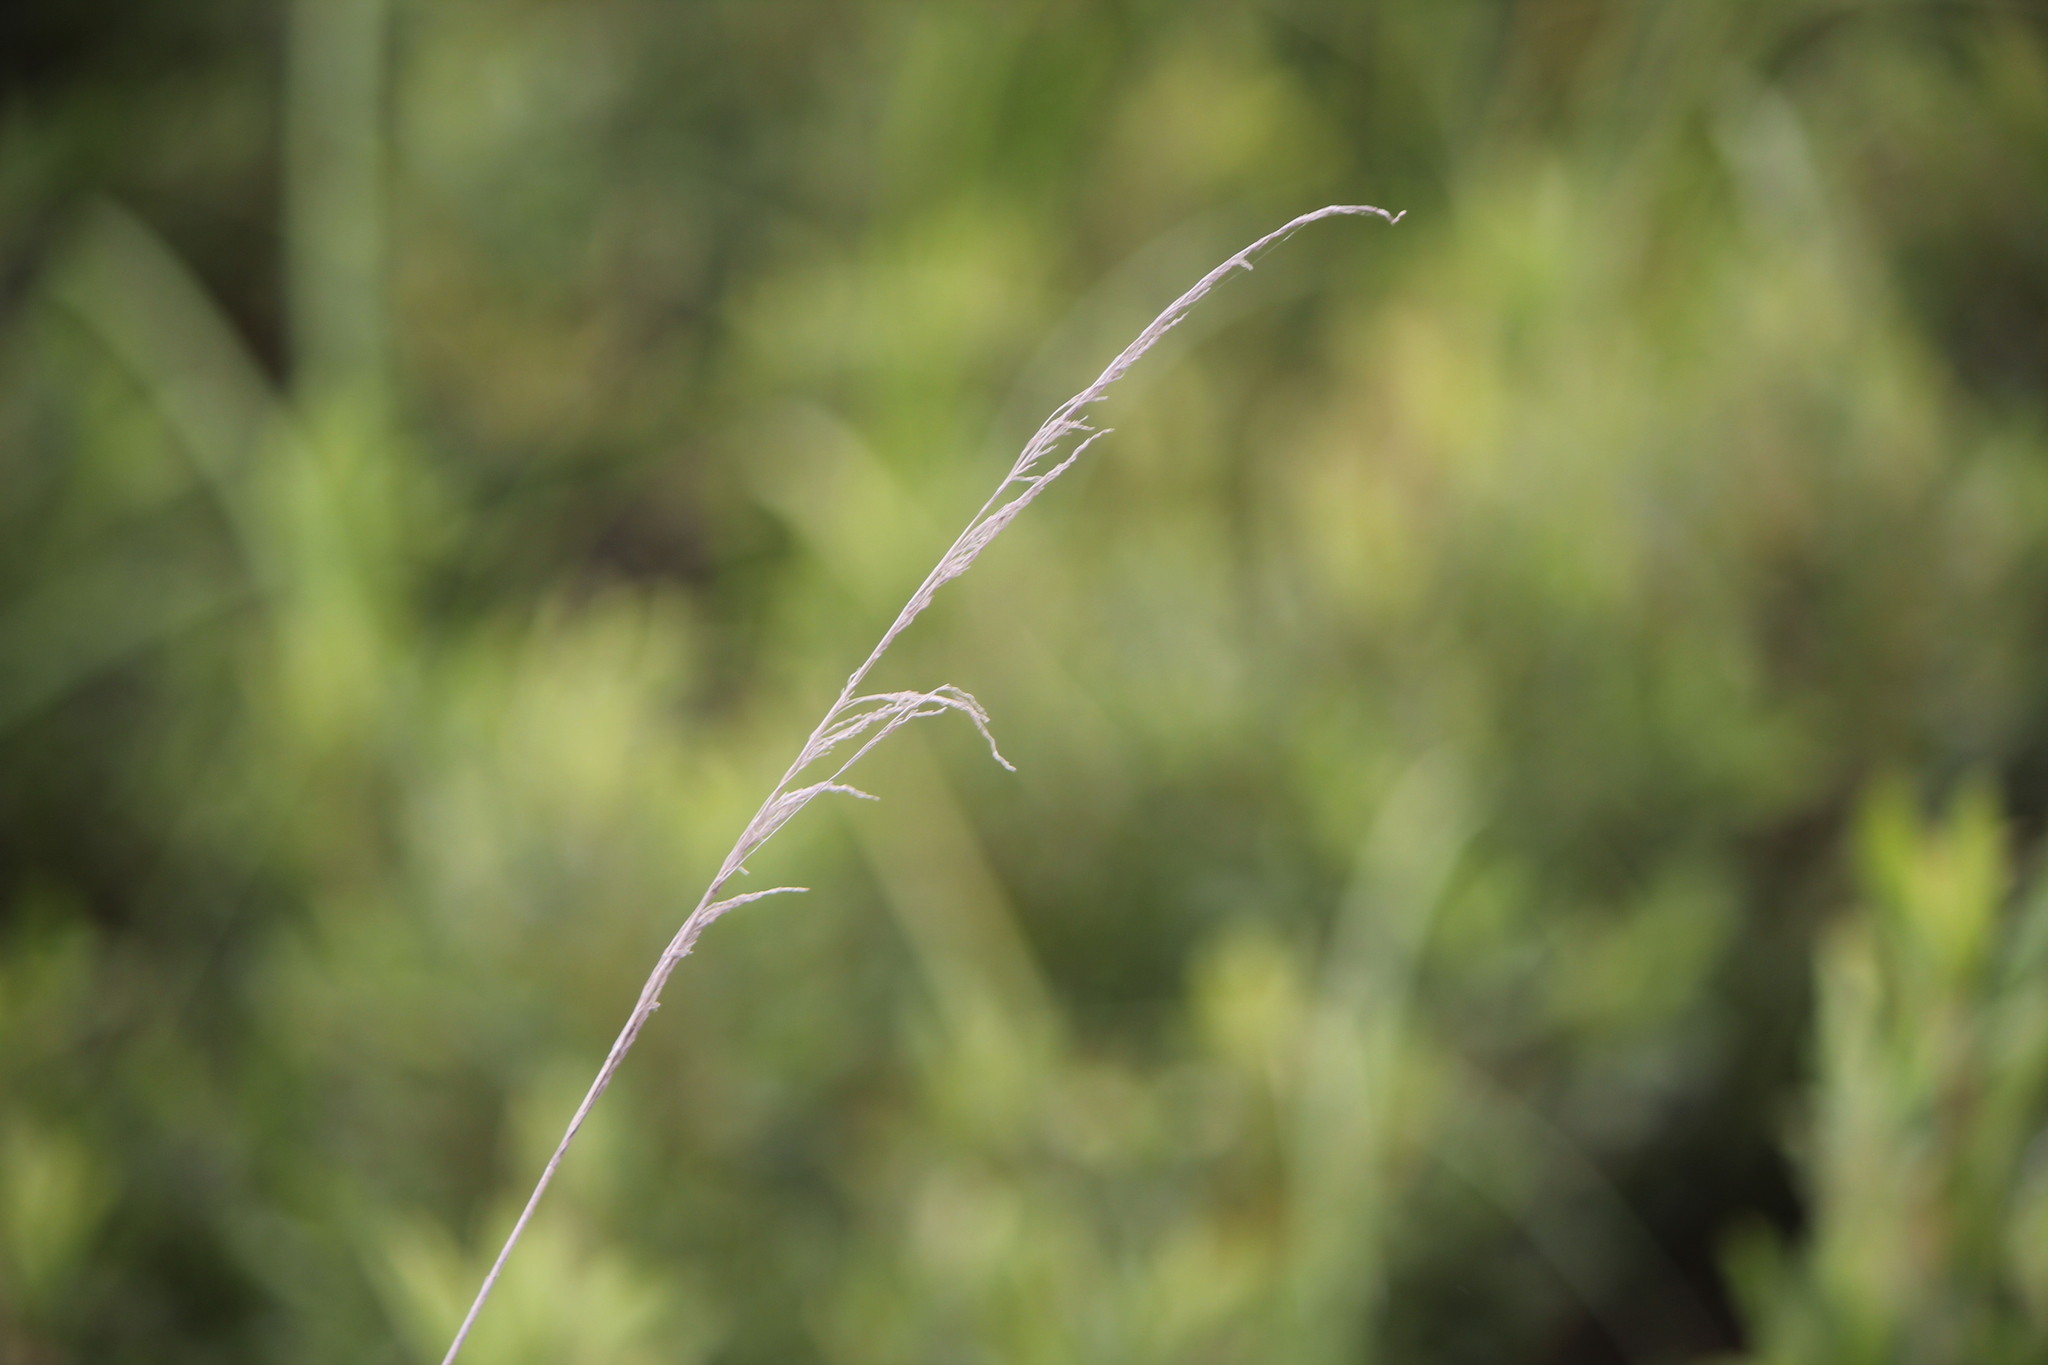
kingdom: Plantae
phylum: Tracheophyta
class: Liliopsida
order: Poales
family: Poaceae
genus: Calamagrostis
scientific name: Calamagrostis canadensis
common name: Canada bluejoint
